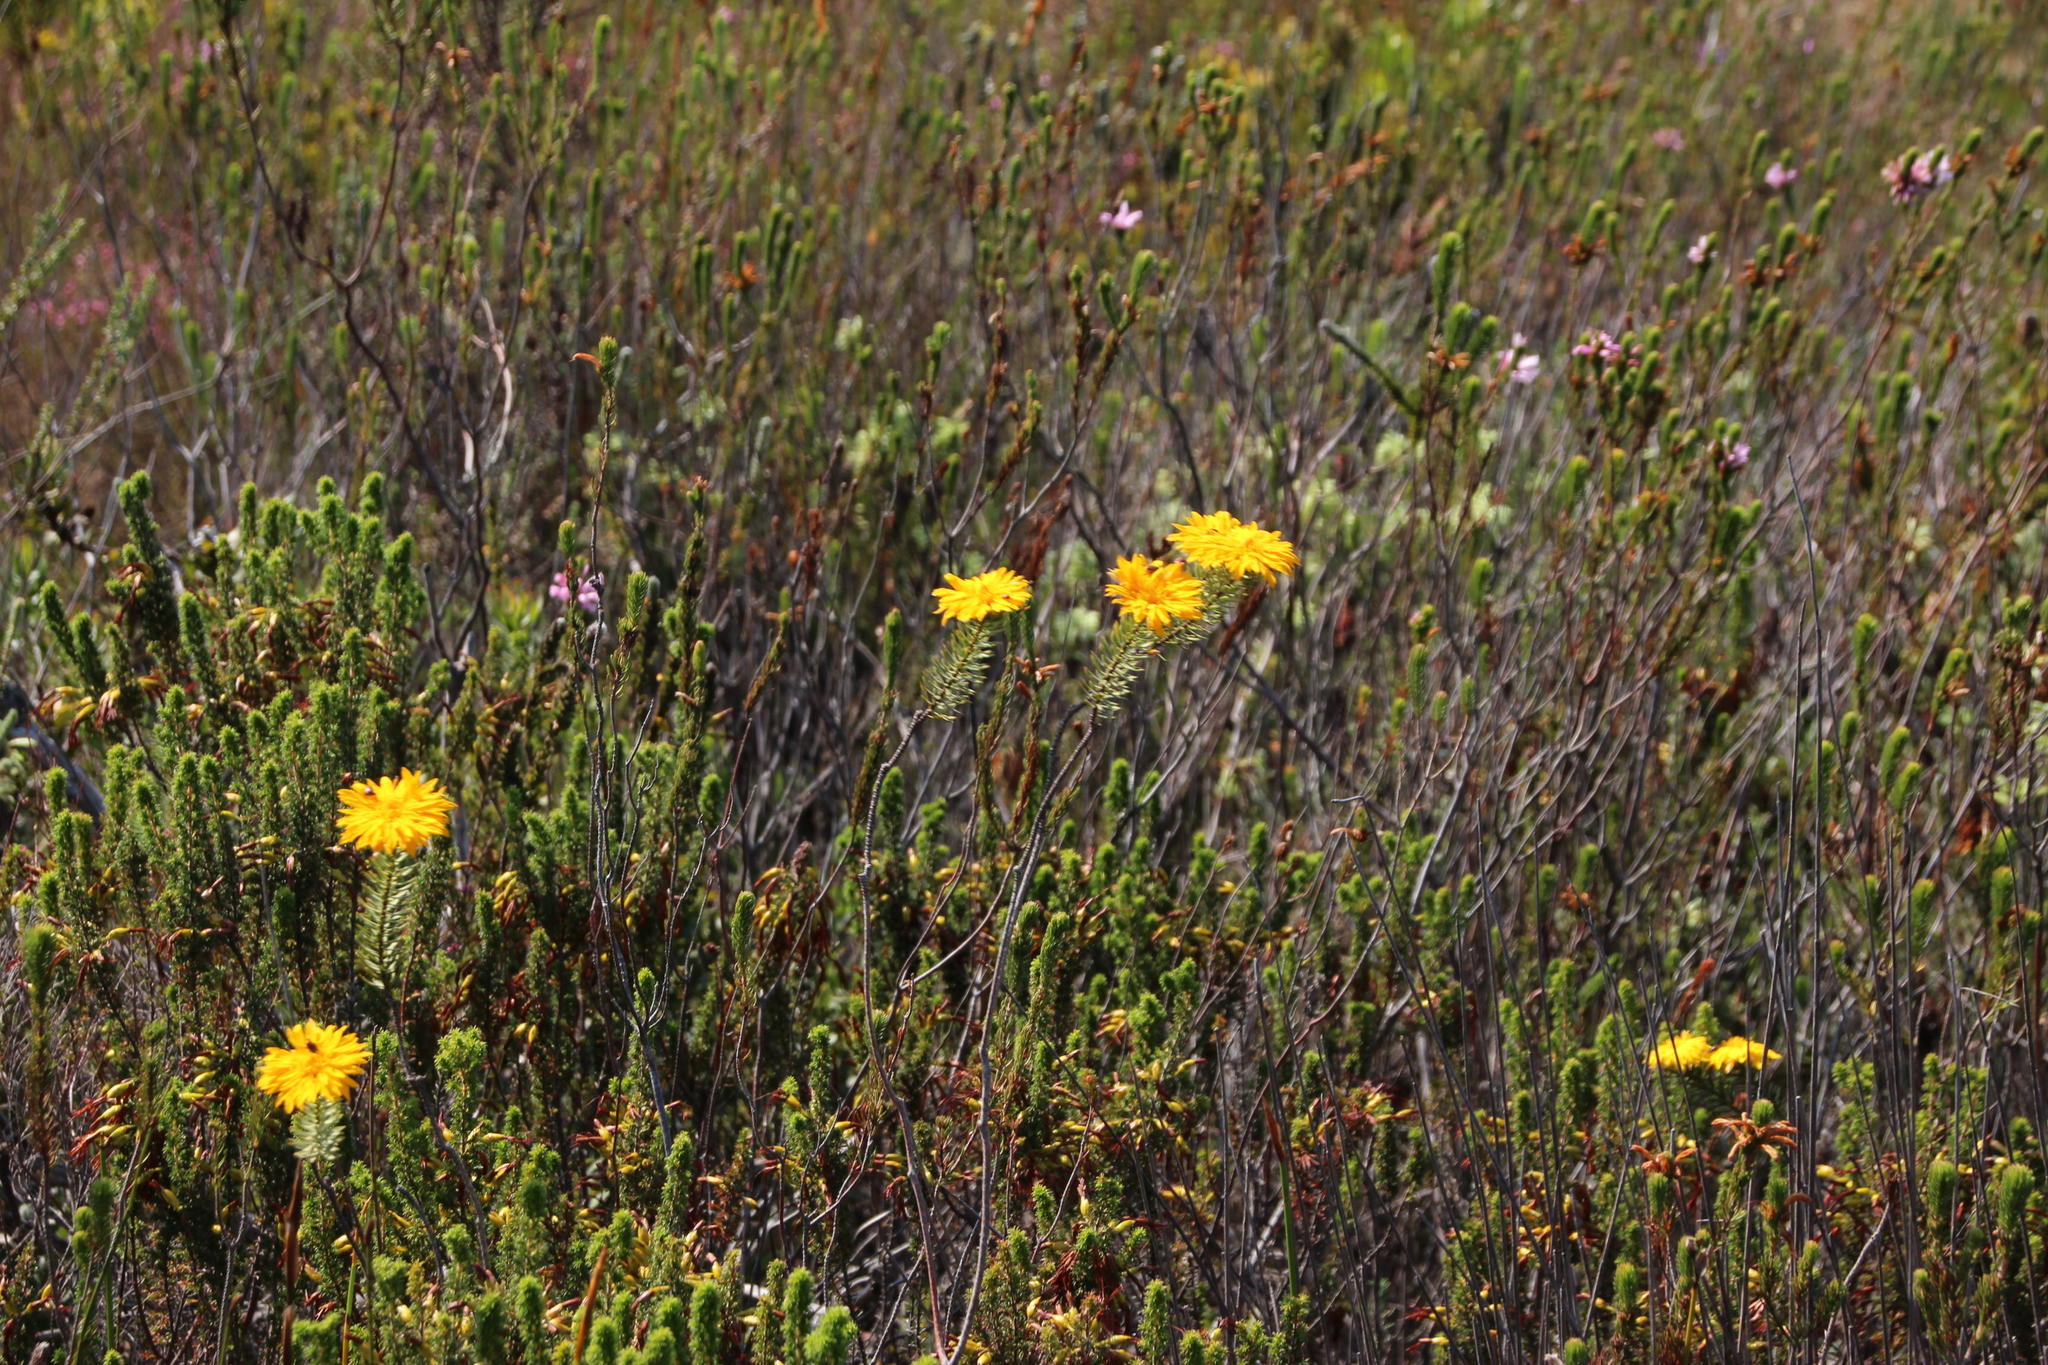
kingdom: Plantae
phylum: Tracheophyta
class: Magnoliopsida
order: Malvales
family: Thymelaeaceae
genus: Lachnaea
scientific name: Lachnaea aurea
